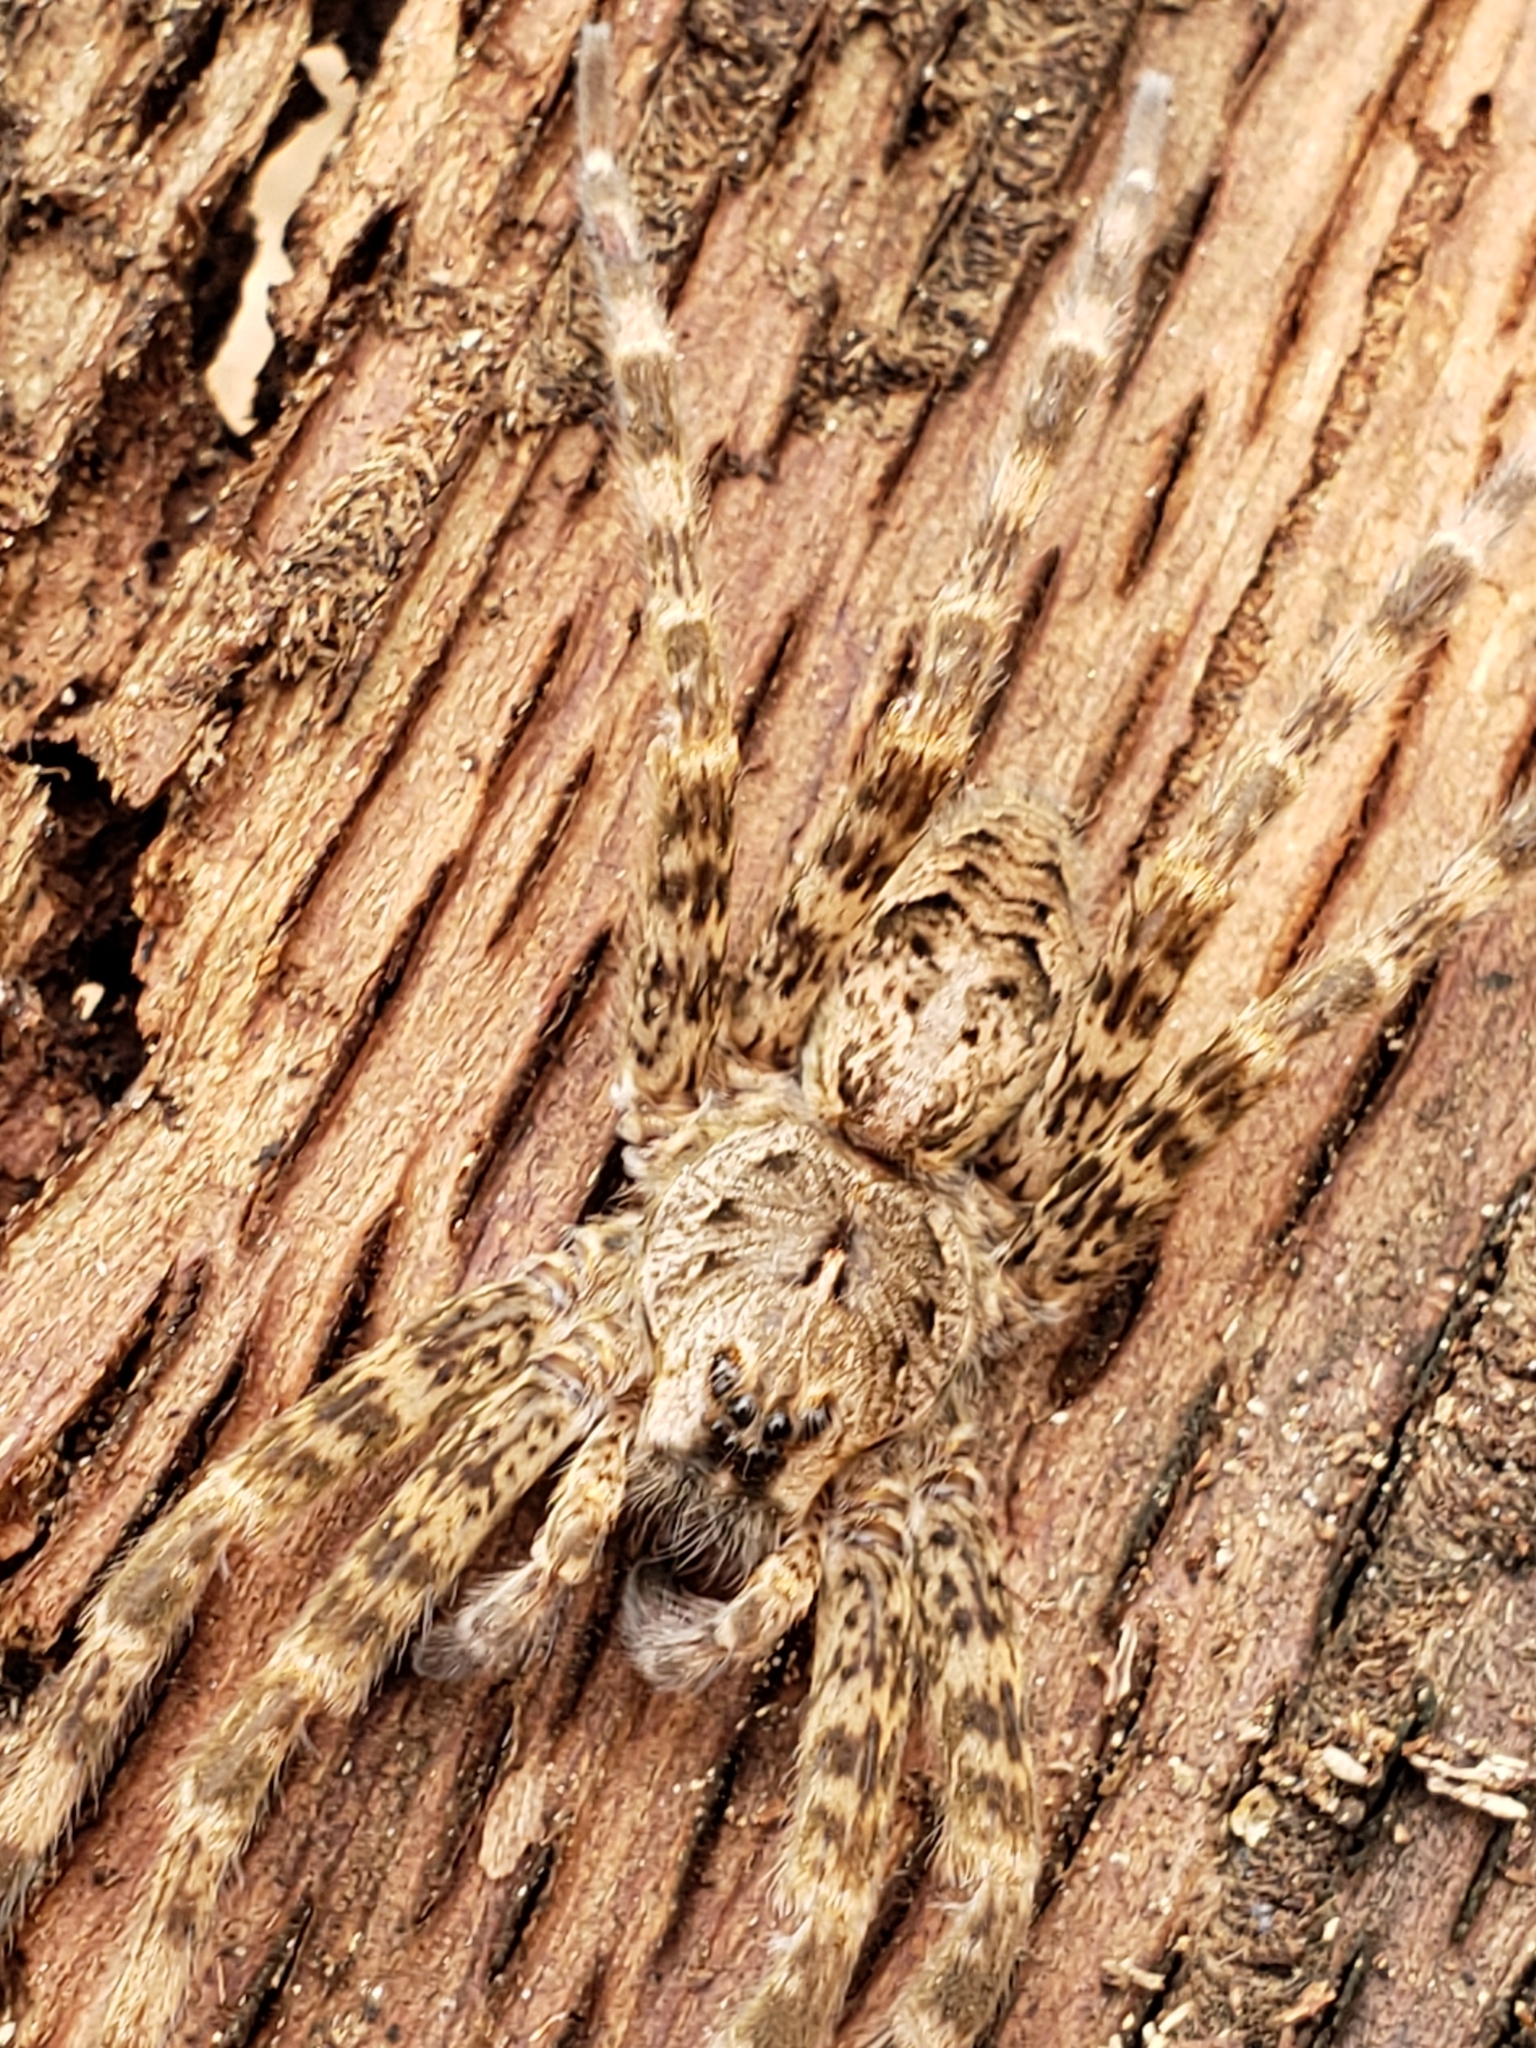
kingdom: Animalia
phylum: Arthropoda
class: Arachnida
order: Araneae
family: Pisauridae
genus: Dolomedes
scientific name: Dolomedes tenebrosus
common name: Dark fishing spider
